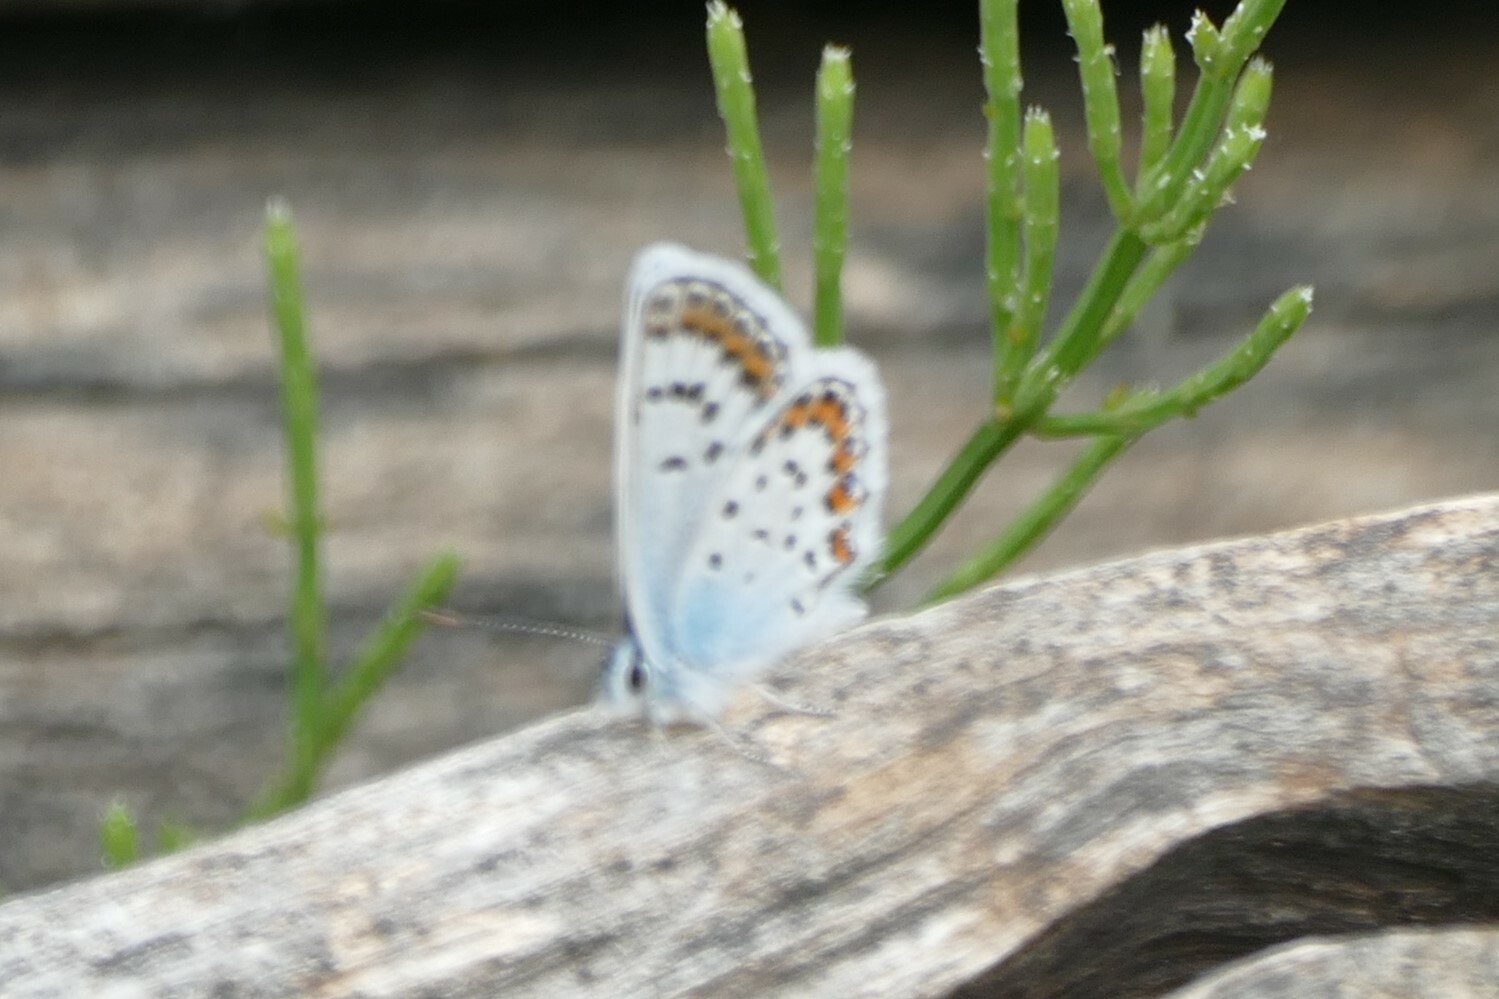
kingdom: Animalia
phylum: Arthropoda
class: Insecta
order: Lepidoptera
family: Lycaenidae
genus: Plebejus
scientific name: Plebejus argus
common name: Silver-studded blue
